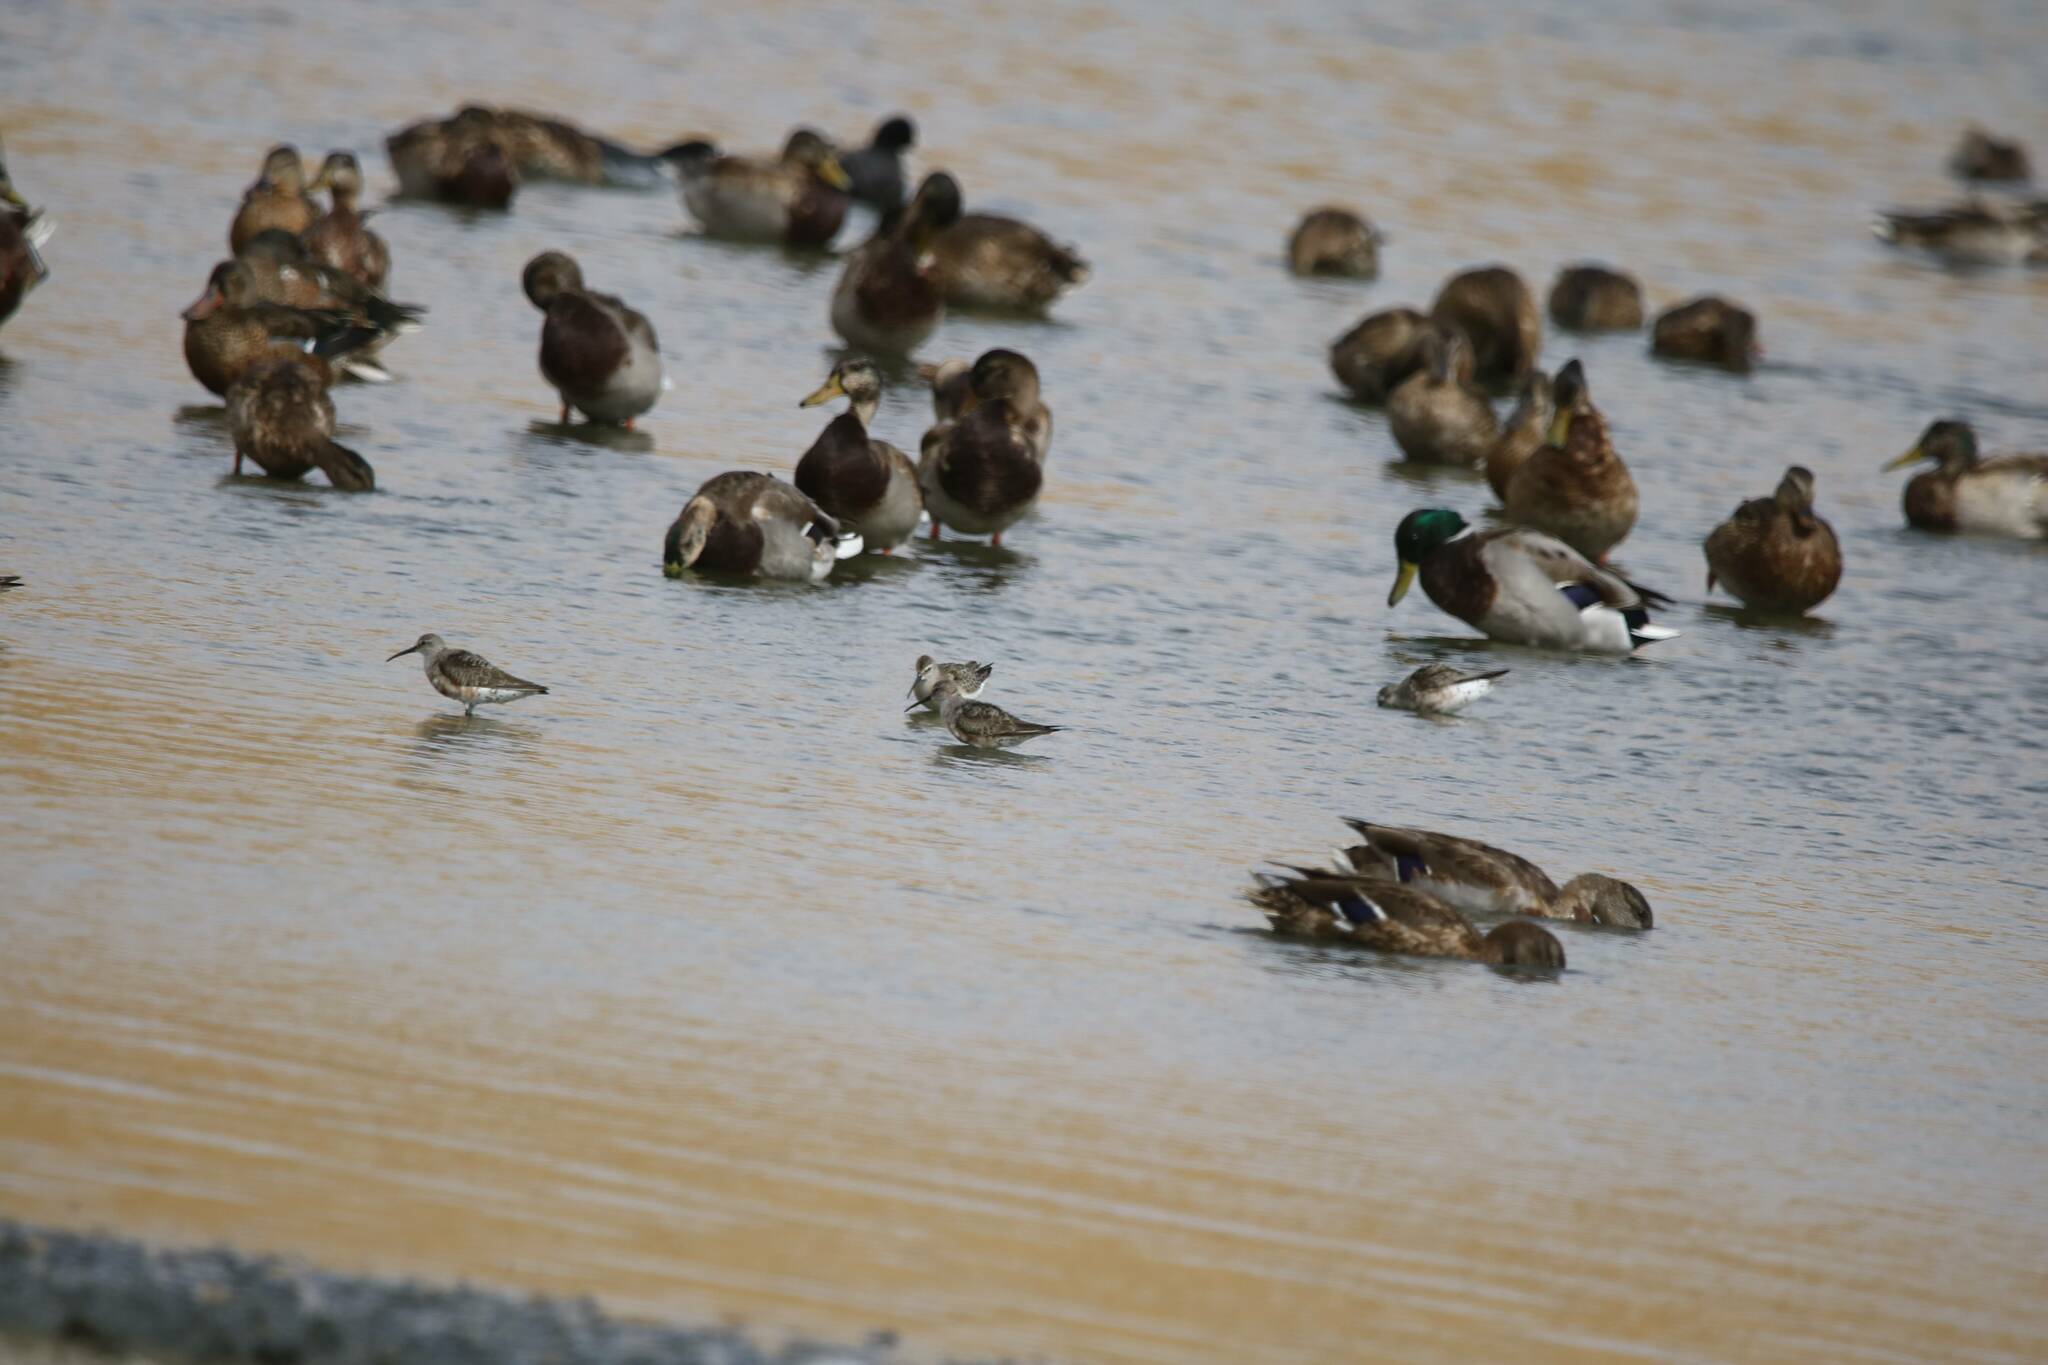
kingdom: Animalia
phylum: Chordata
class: Aves
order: Anseriformes
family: Anatidae
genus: Anas
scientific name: Anas platyrhynchos
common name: Mallard
